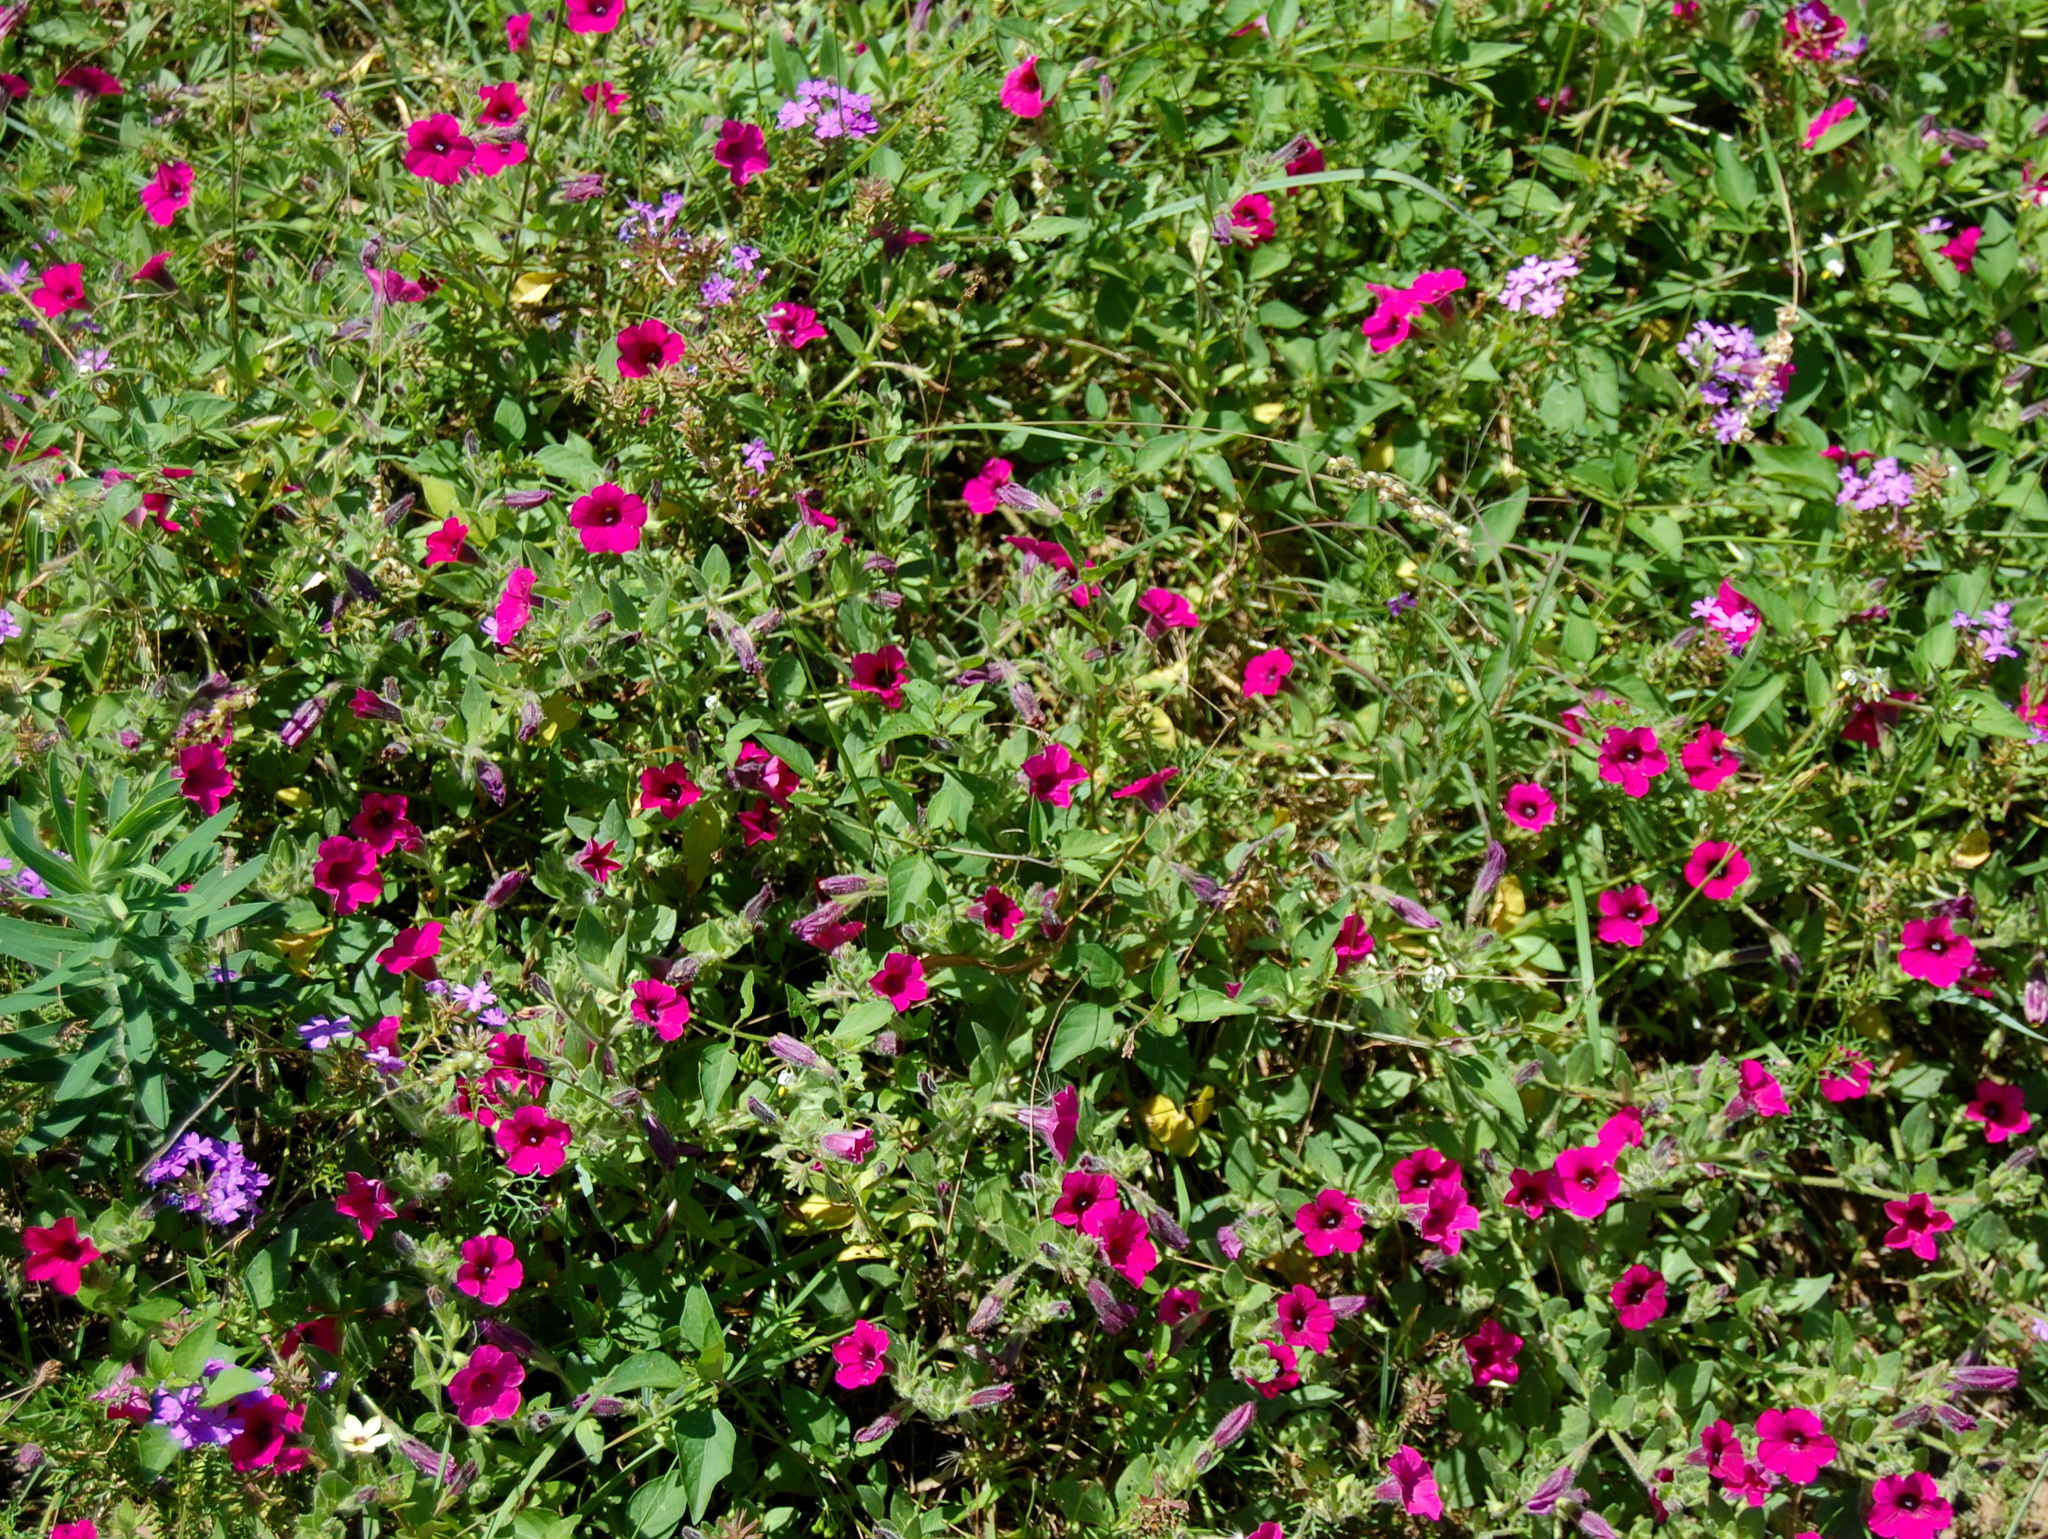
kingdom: Plantae
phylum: Tracheophyta
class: Magnoliopsida
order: Solanales
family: Solanaceae
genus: Petunia
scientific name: Petunia integrifolia
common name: Violet-flower petunia
